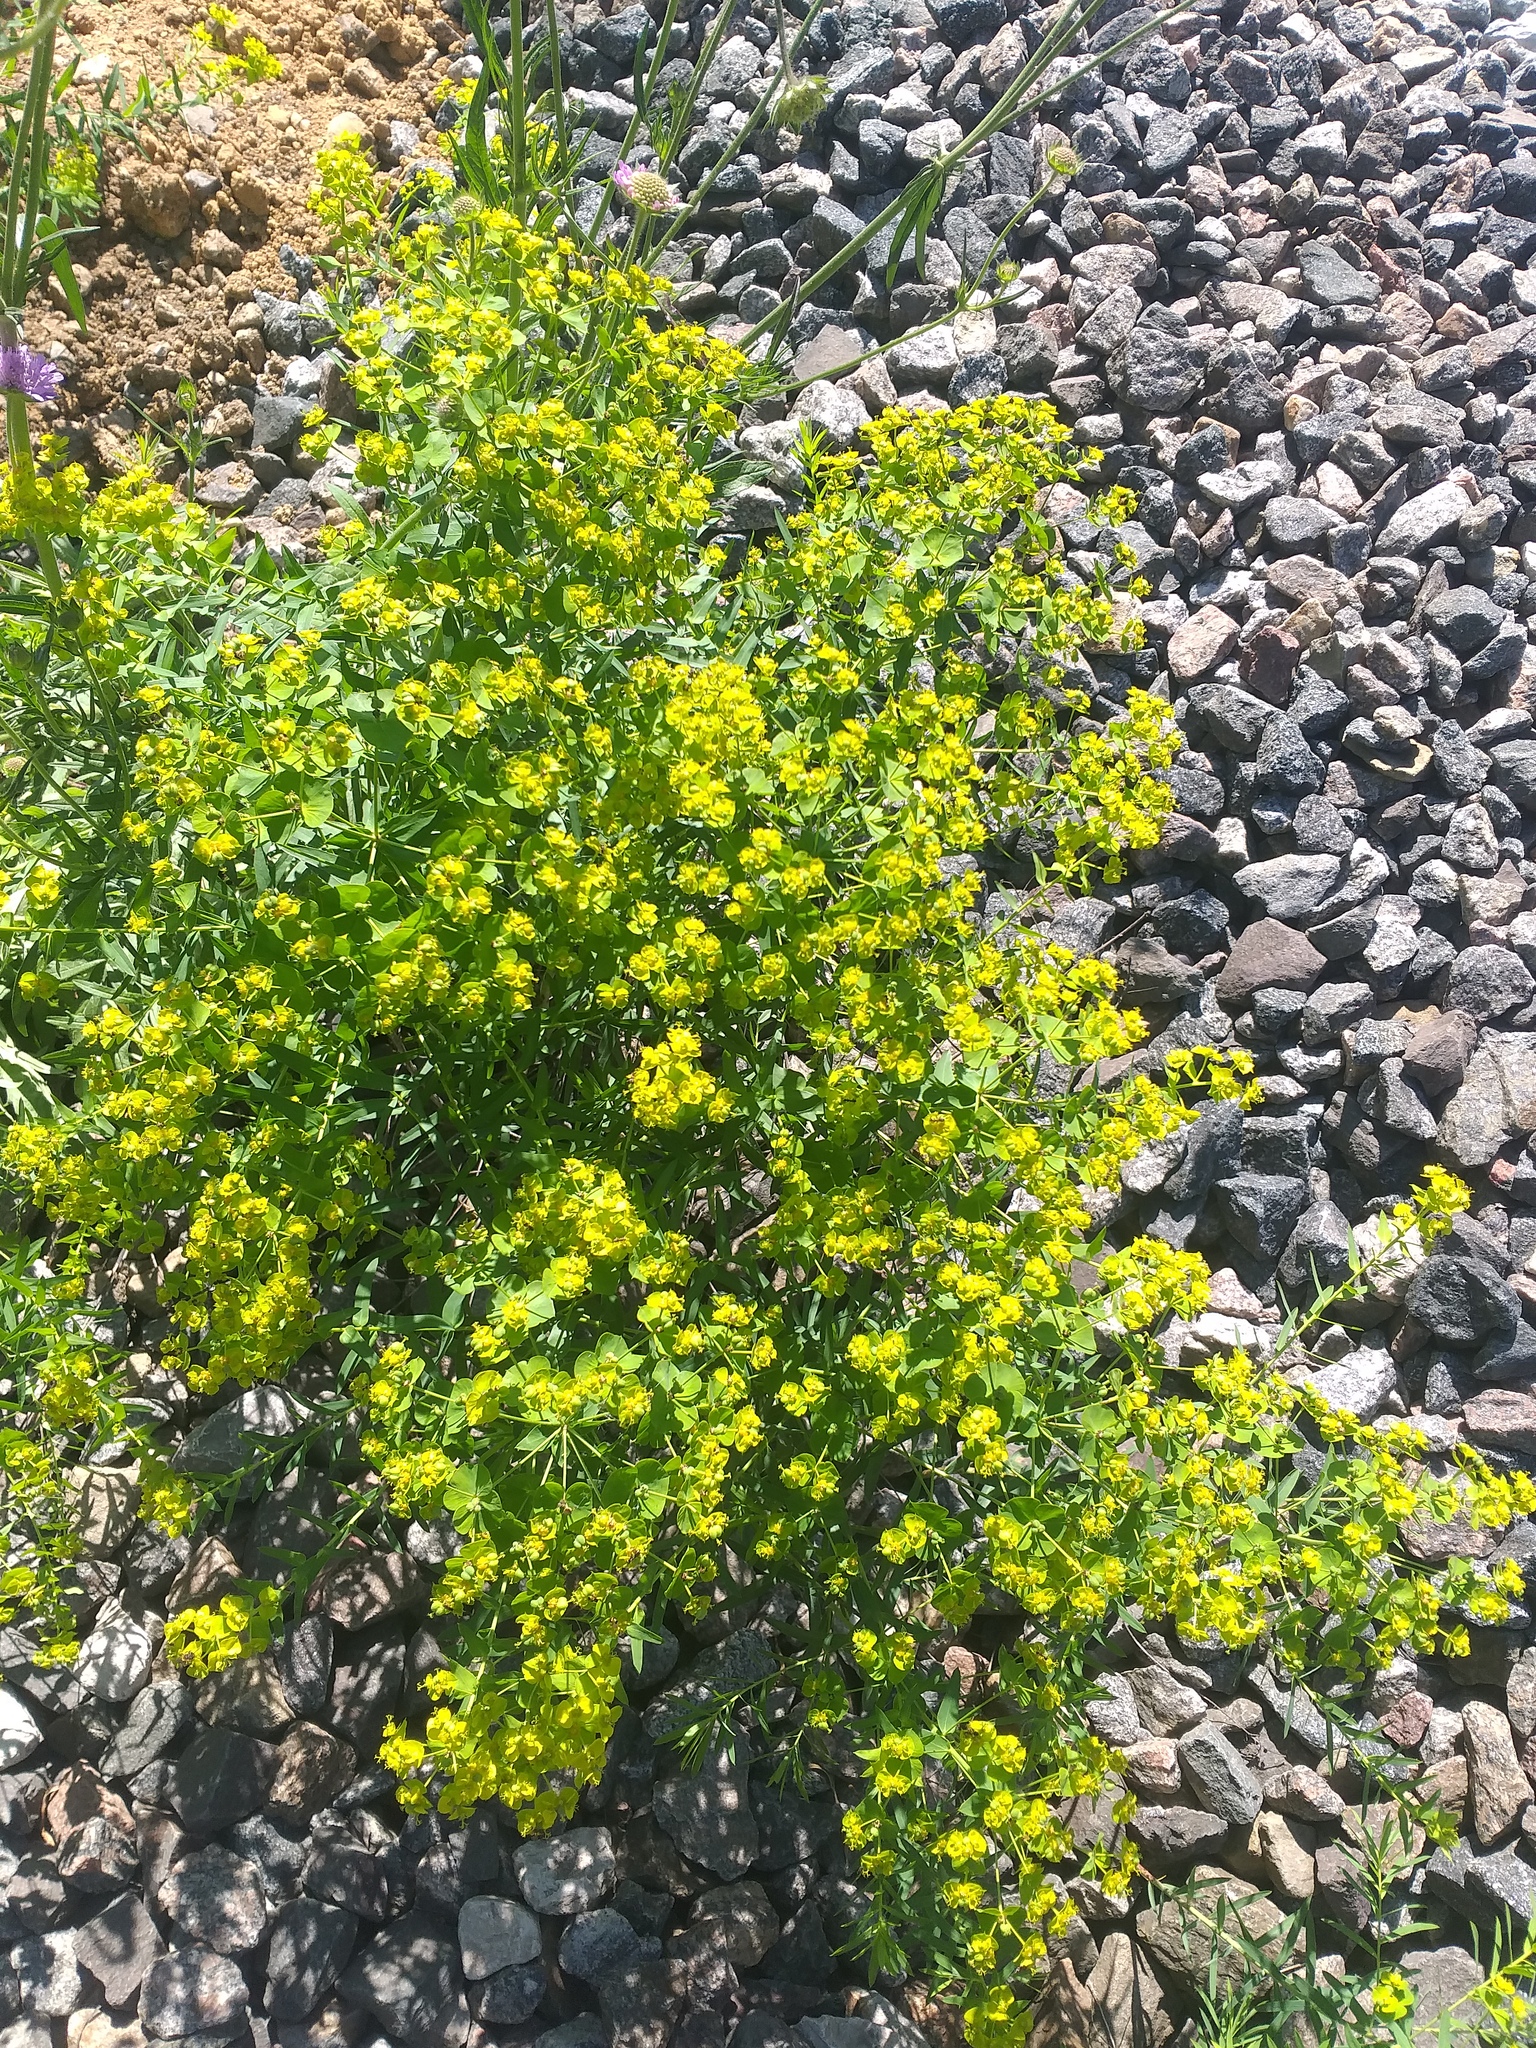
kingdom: Plantae
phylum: Tracheophyta
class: Magnoliopsida
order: Malpighiales
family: Euphorbiaceae
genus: Euphorbia
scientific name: Euphorbia virgata
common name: Leafy spurge
